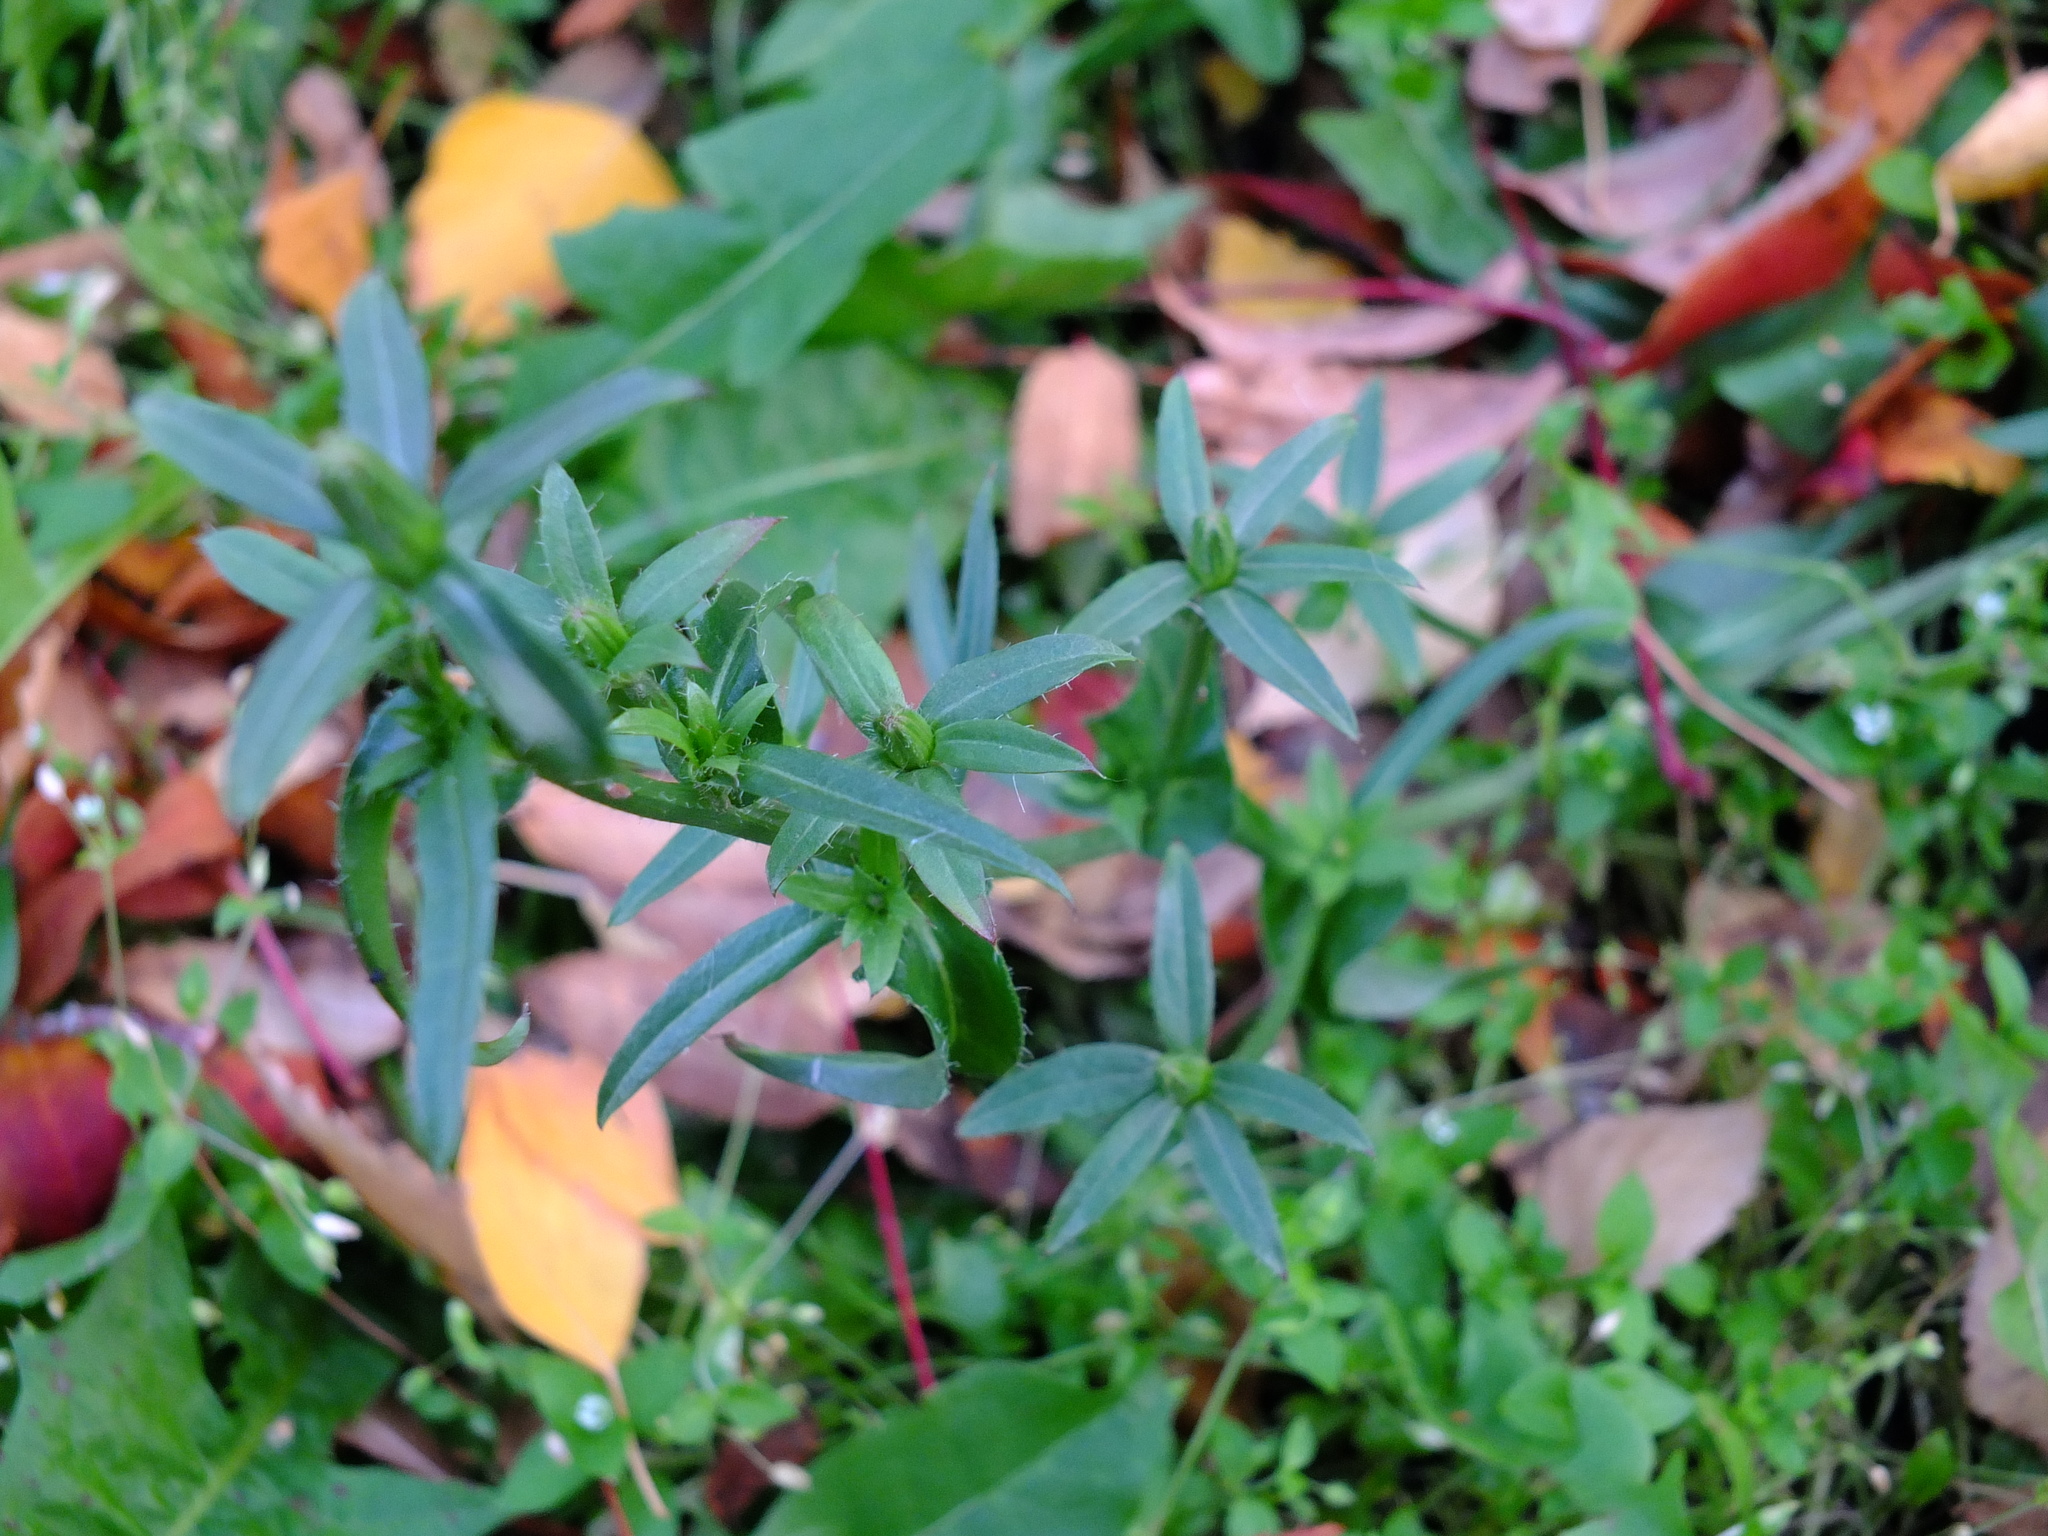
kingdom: Plantae
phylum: Tracheophyta
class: Magnoliopsida
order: Asterales
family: Asteraceae
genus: Cichorium
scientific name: Cichorium intybus
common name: Chicory
